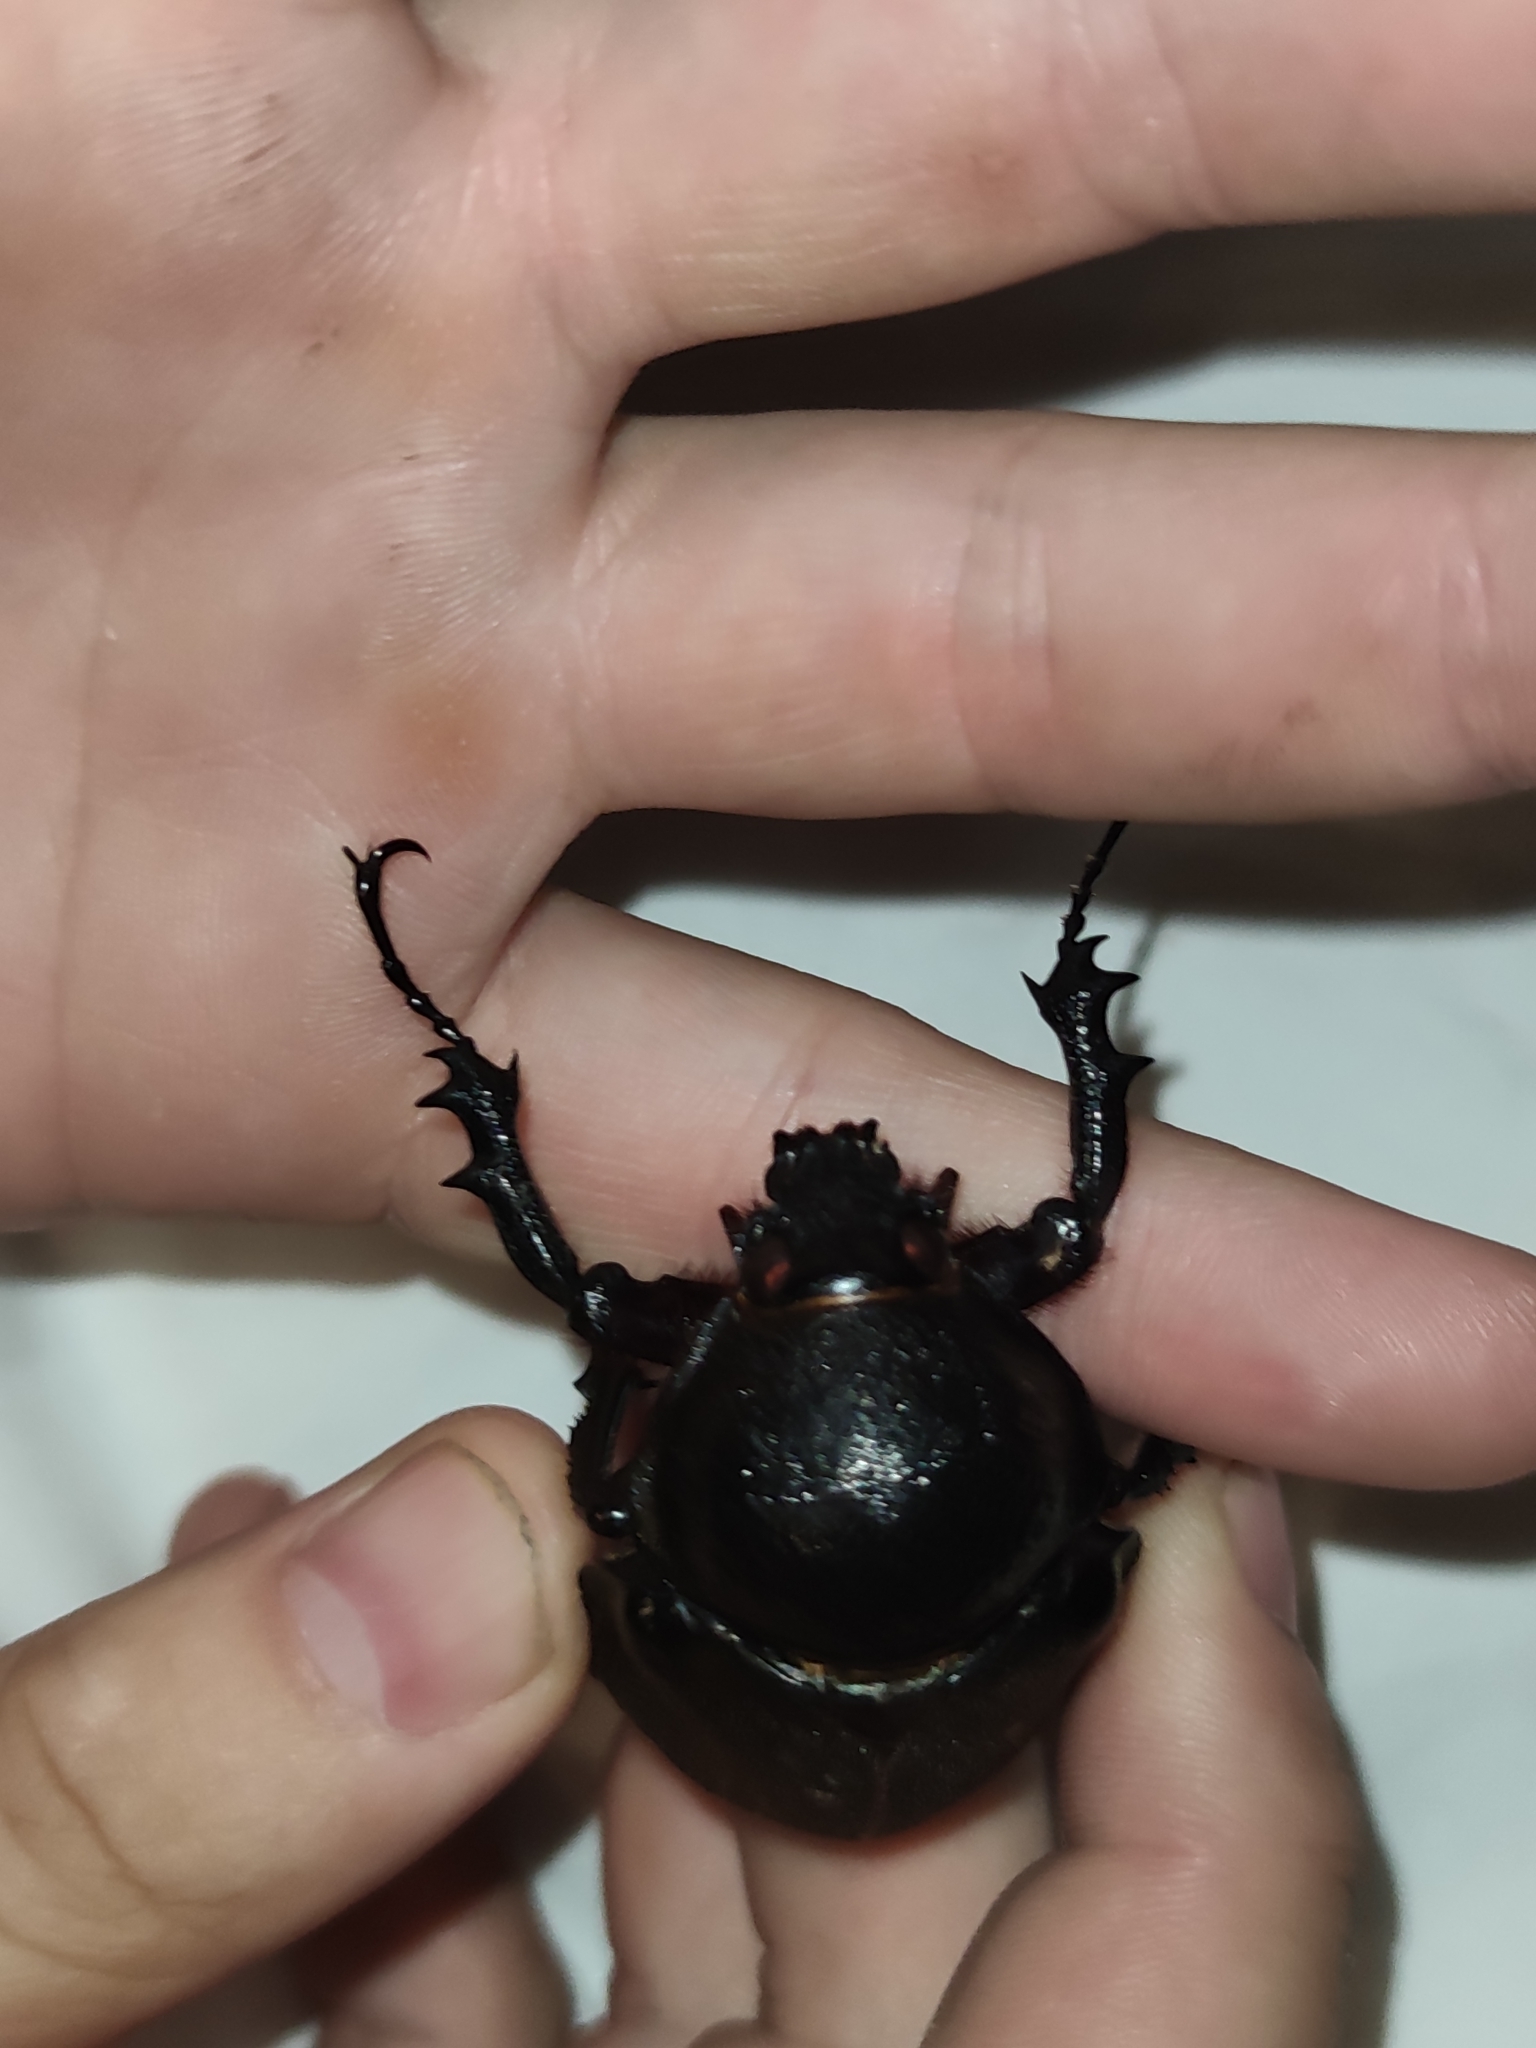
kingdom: Animalia
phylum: Arthropoda
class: Insecta
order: Coleoptera
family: Scarabaeidae
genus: Chalcosoma
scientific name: Chalcosoma atlas
